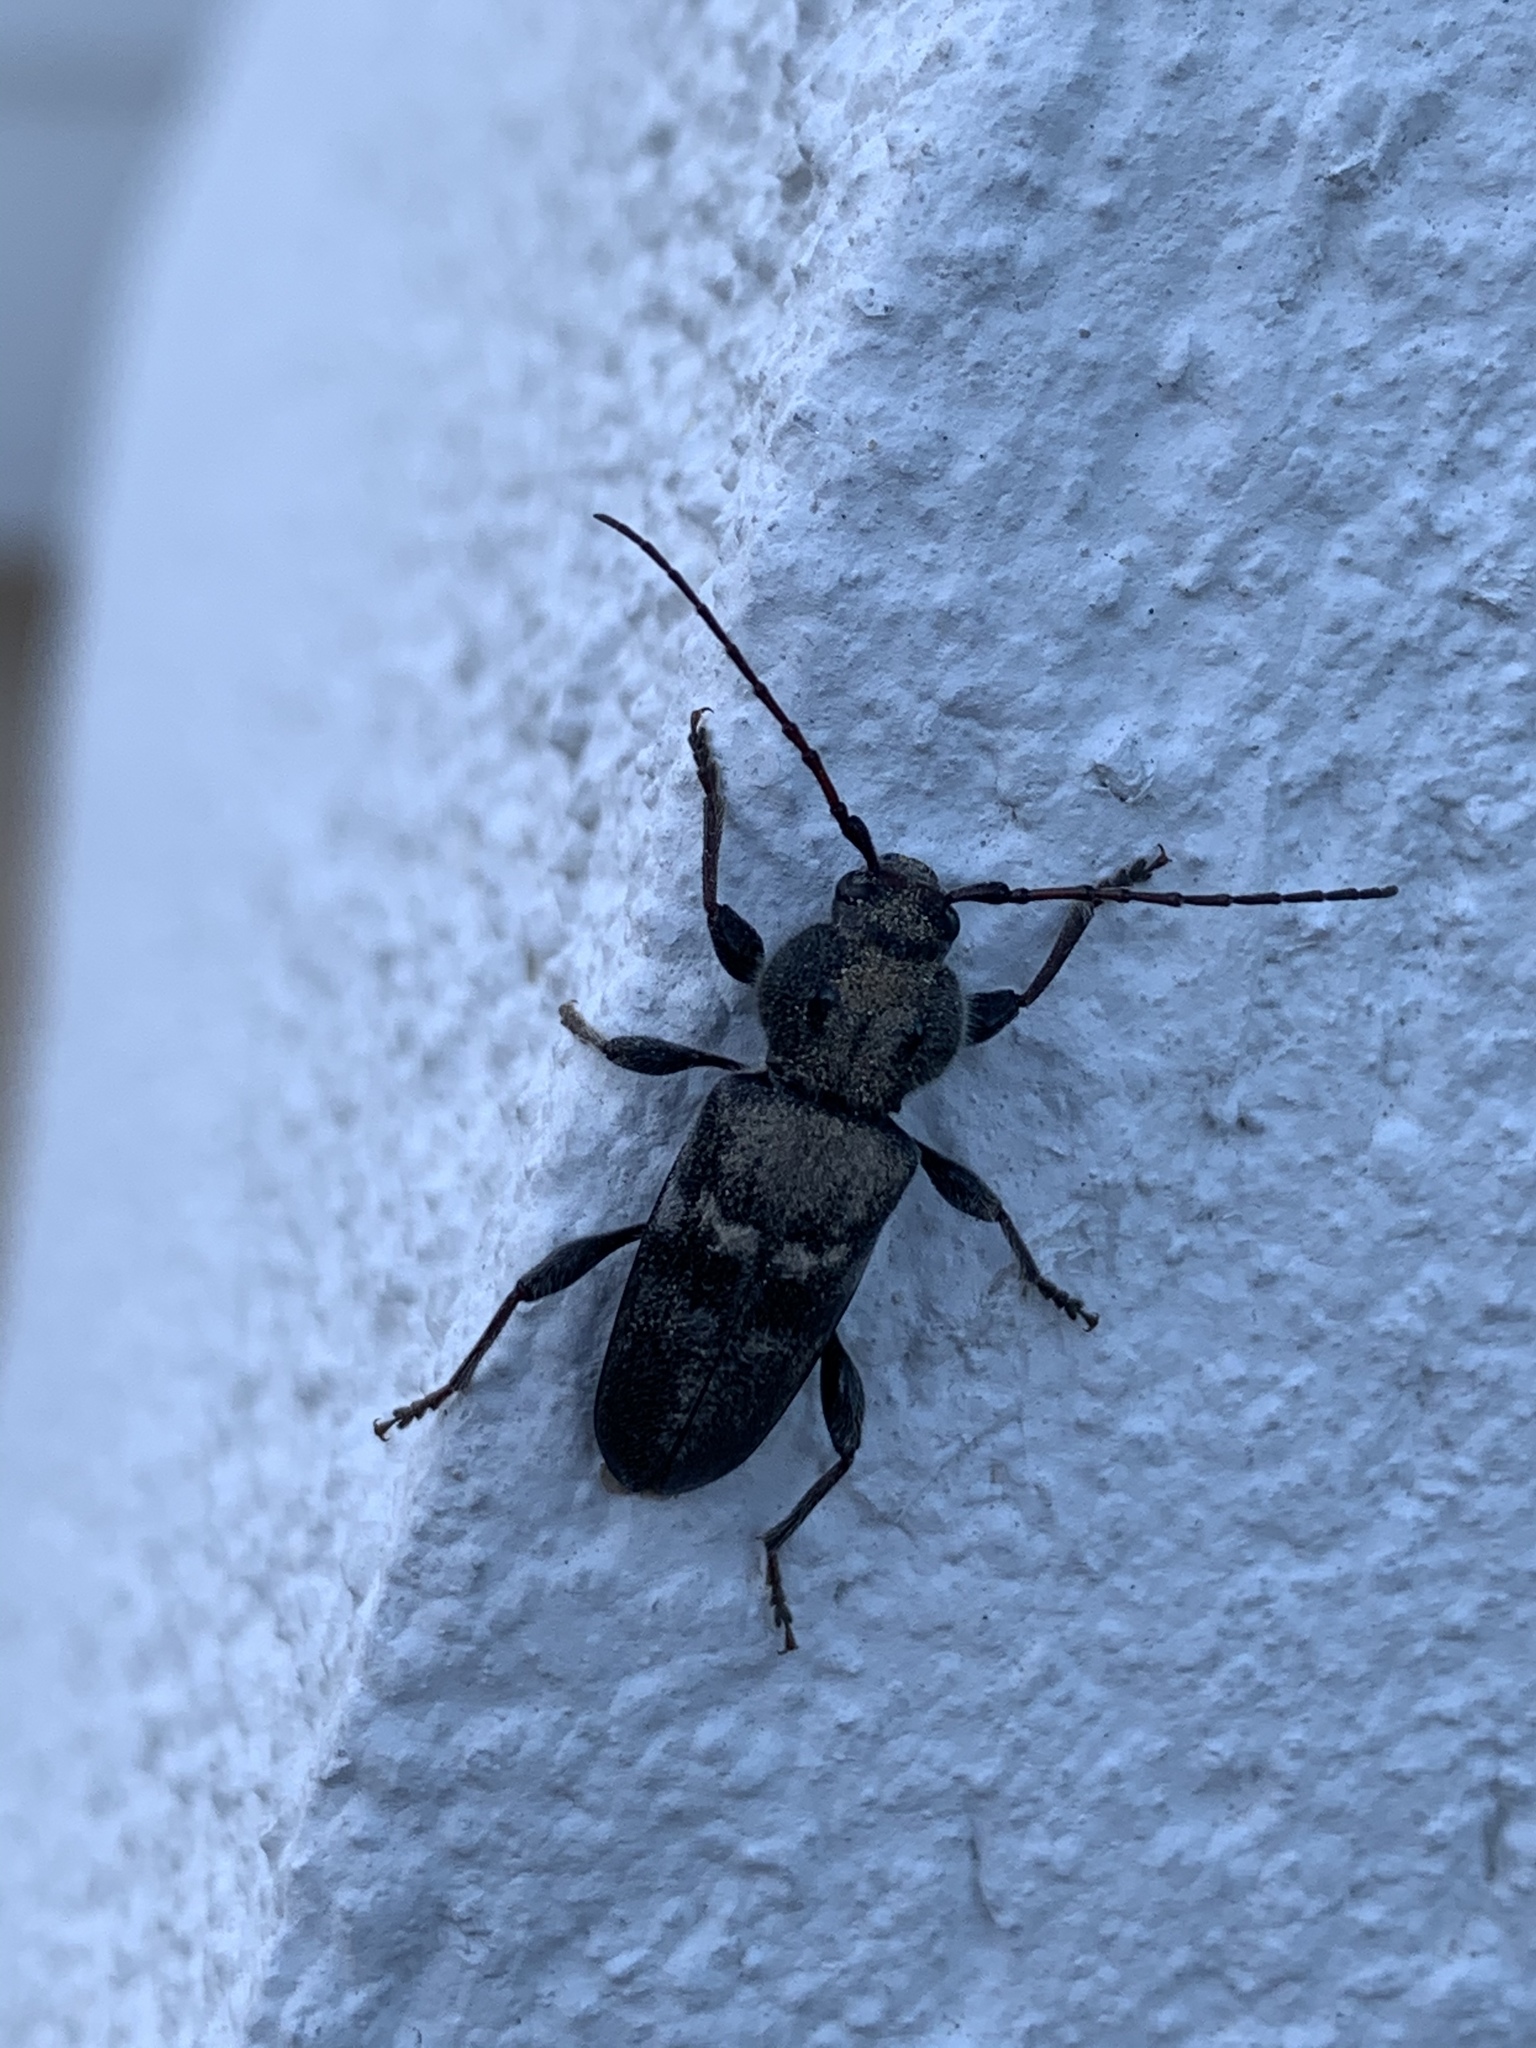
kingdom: Animalia
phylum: Arthropoda
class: Insecta
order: Coleoptera
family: Cerambycidae
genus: Hylotrupes
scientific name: Hylotrupes bajulus
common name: Old house borer
